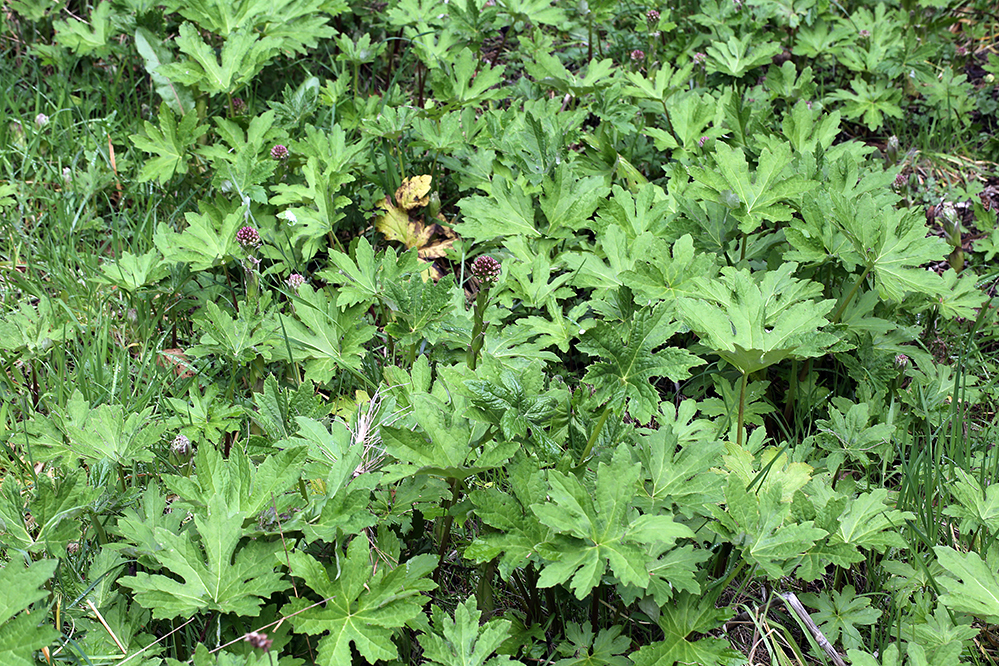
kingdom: Plantae
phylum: Tracheophyta
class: Magnoliopsida
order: Asterales
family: Asteraceae
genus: Petasites
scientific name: Petasites frigidus
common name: Arctic butterbur
